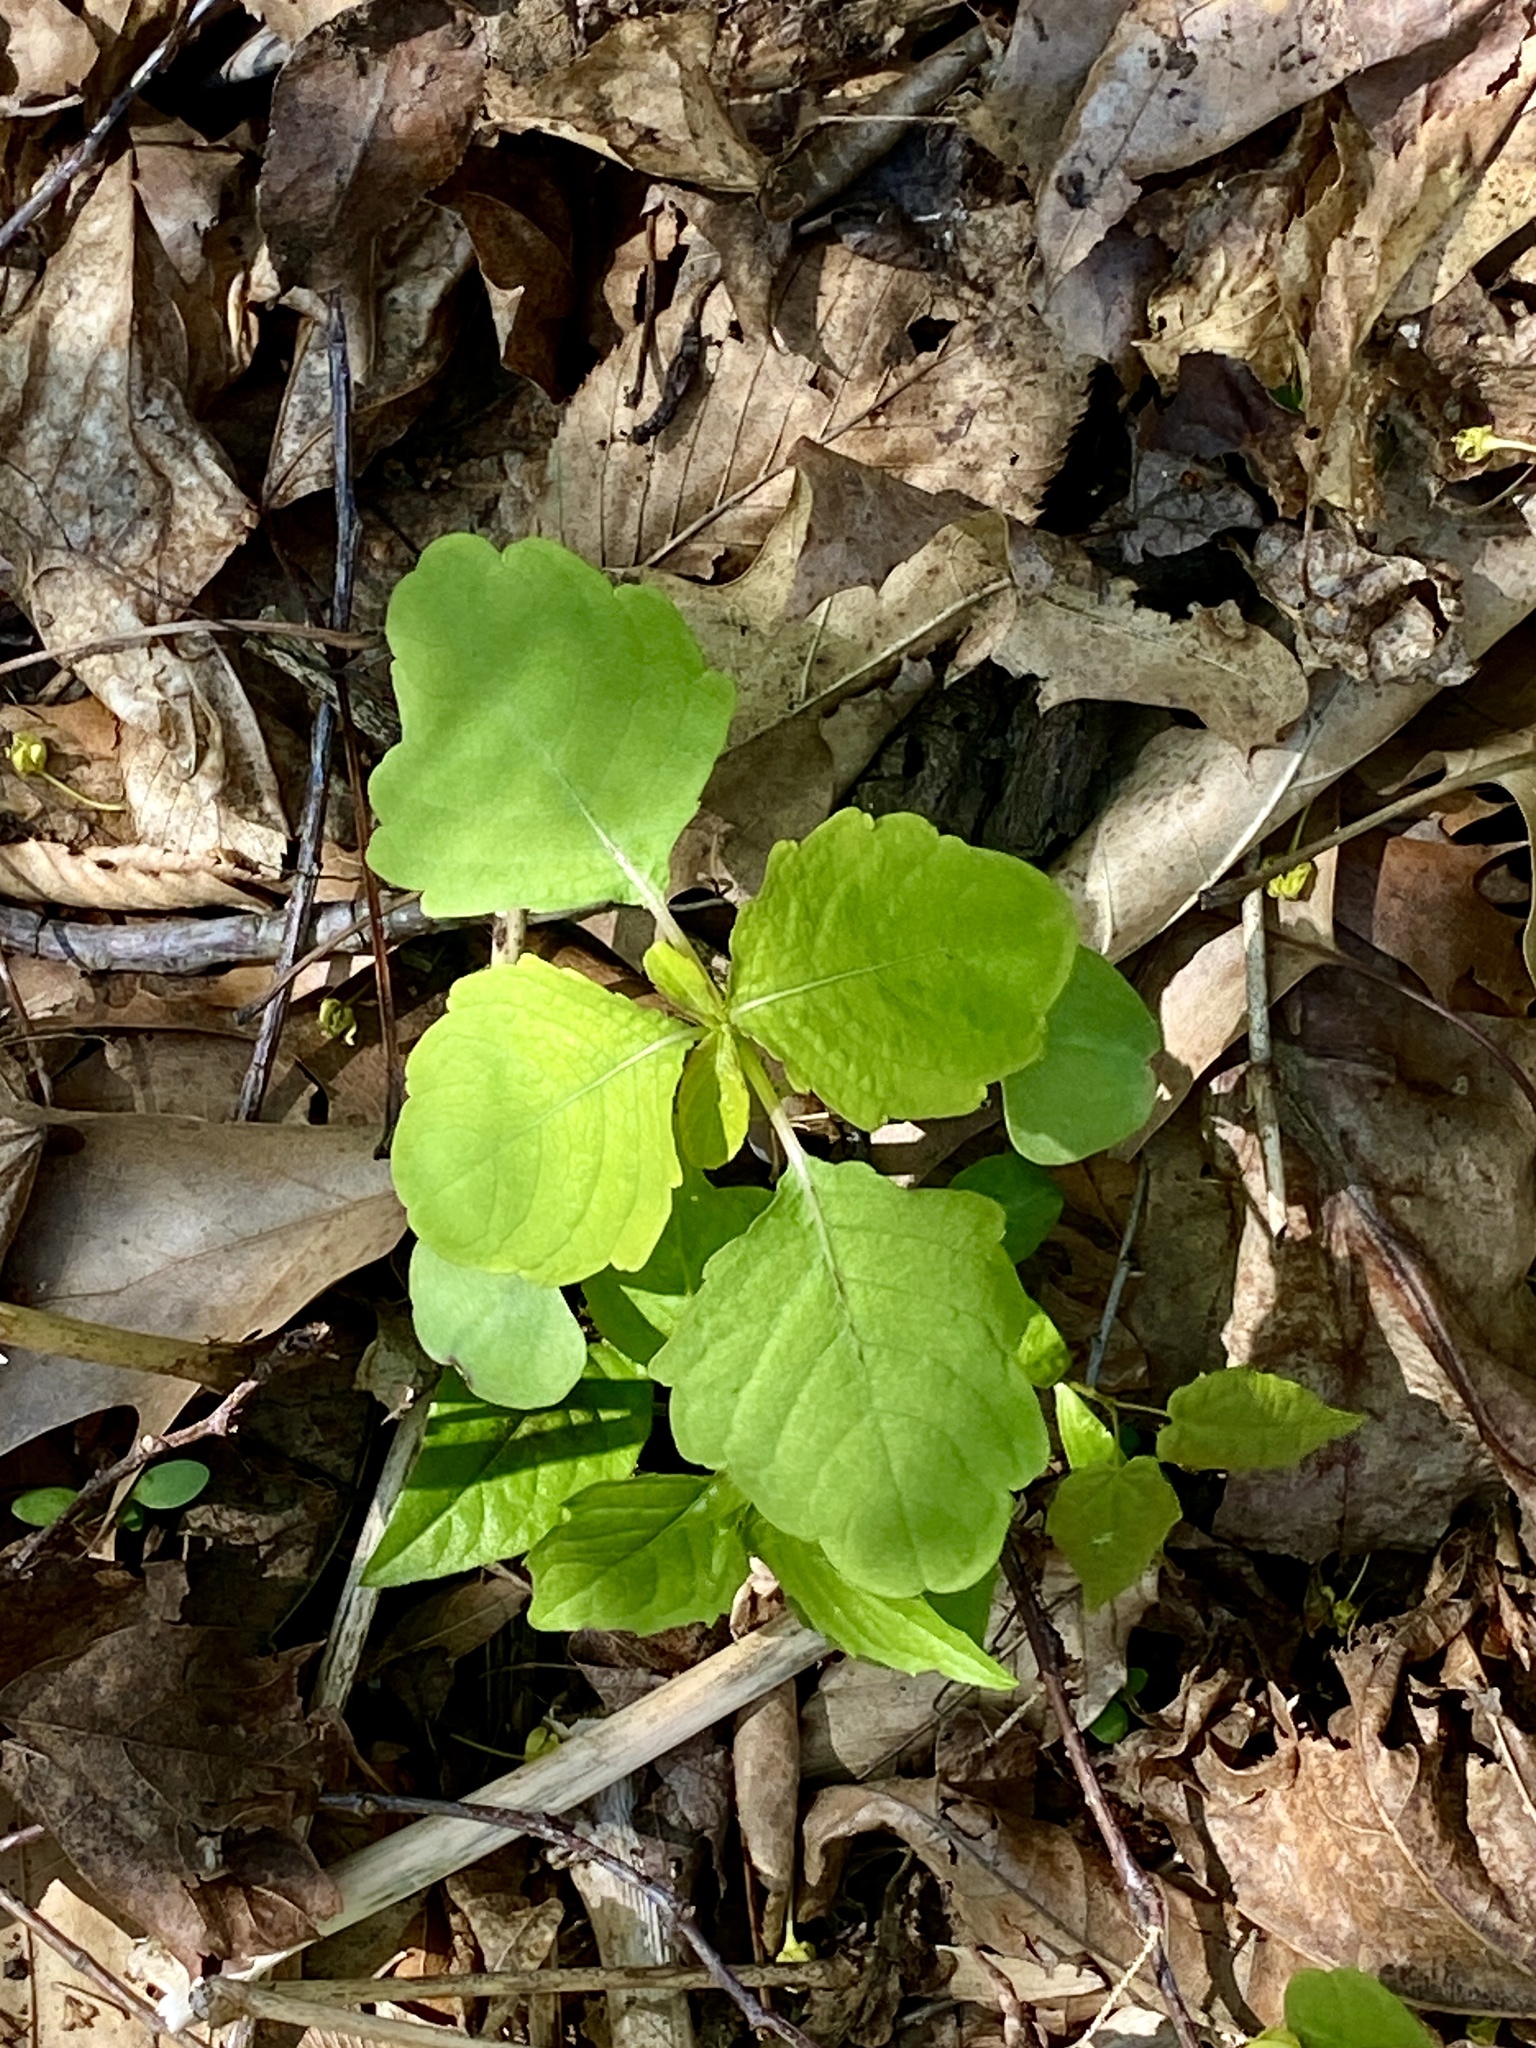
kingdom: Plantae
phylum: Tracheophyta
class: Magnoliopsida
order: Ericales
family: Balsaminaceae
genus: Impatiens
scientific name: Impatiens capensis
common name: Orange balsam
